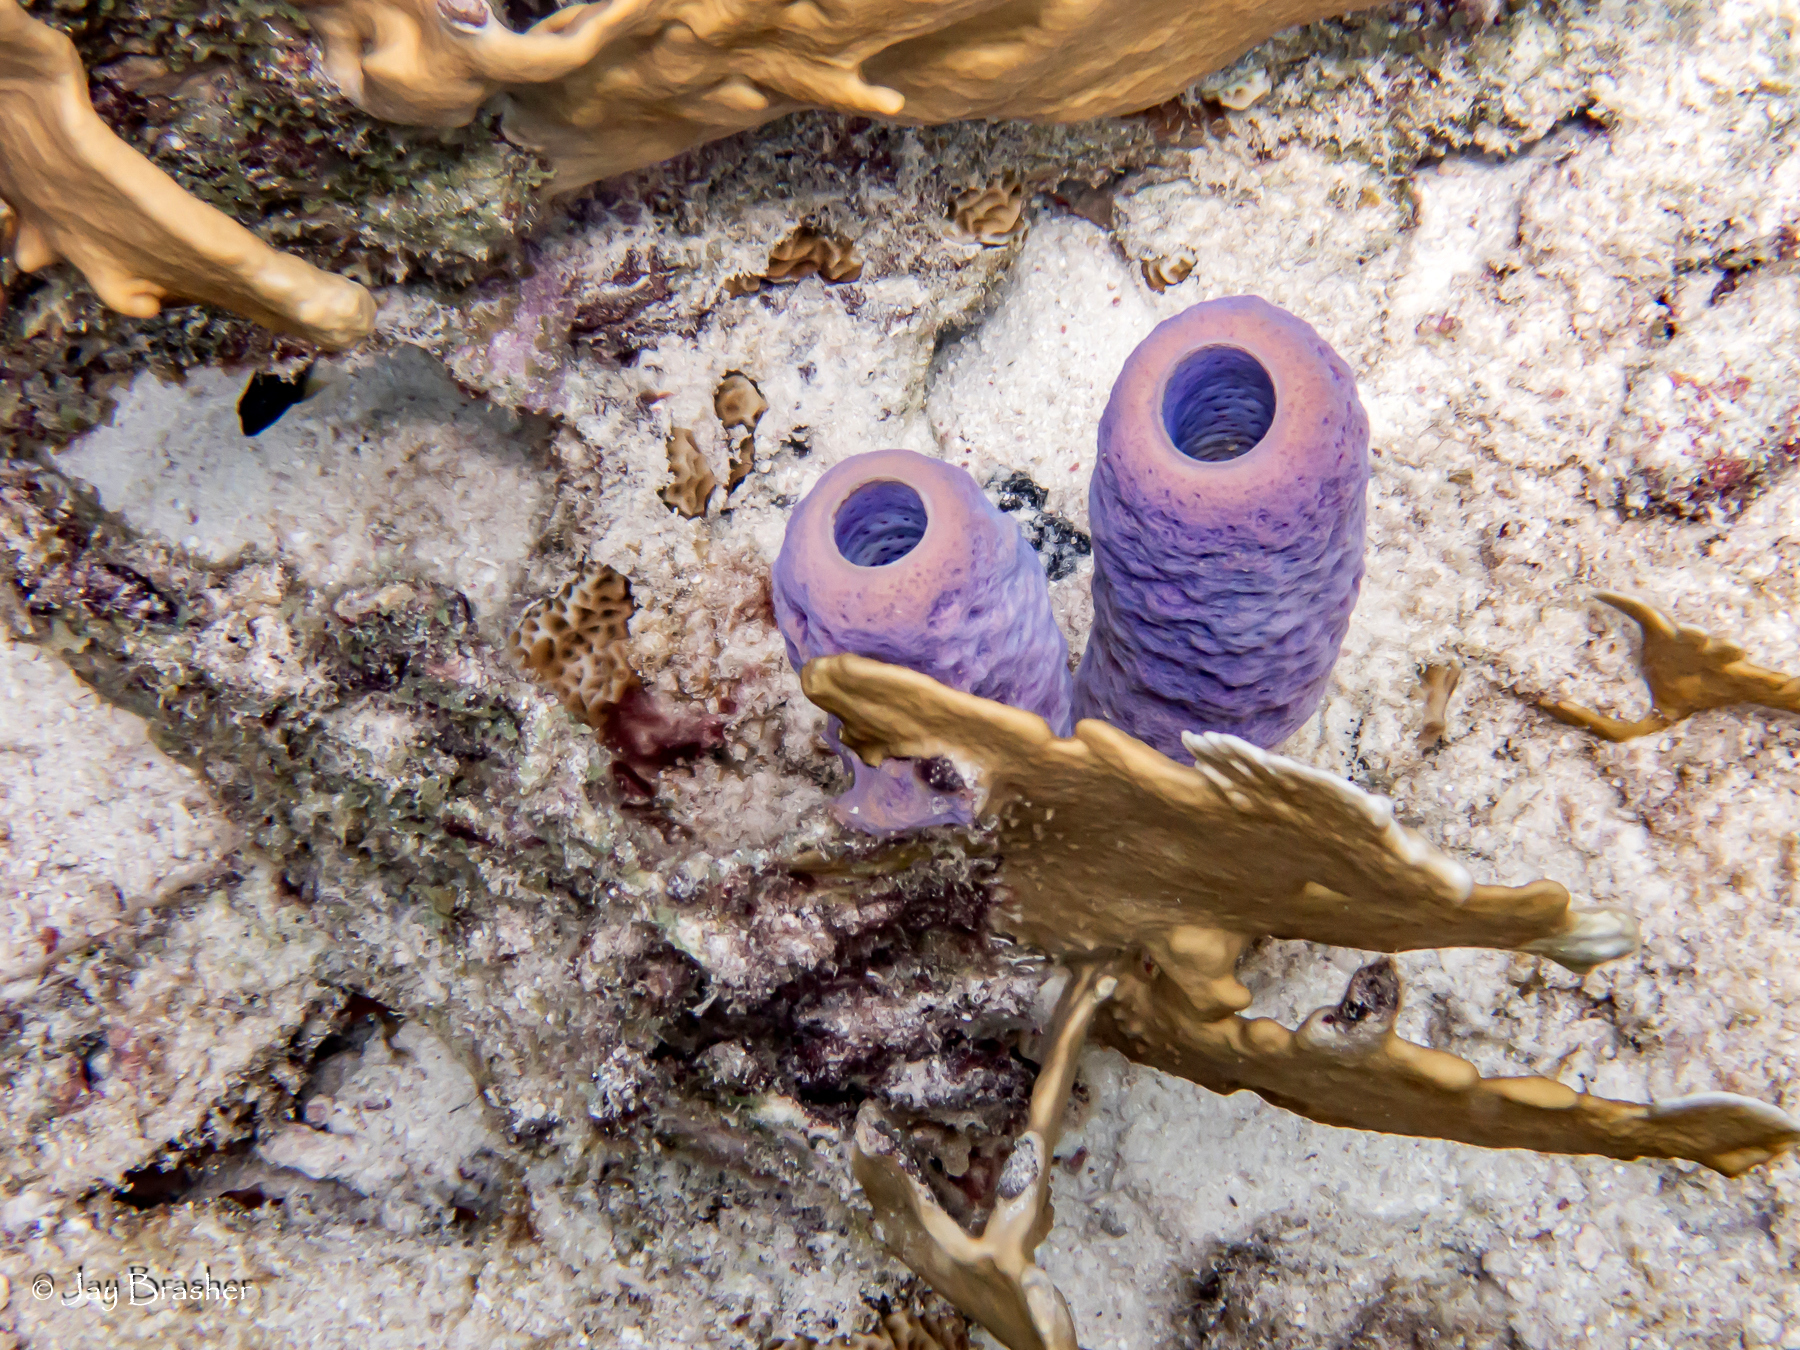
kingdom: Animalia
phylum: Porifera
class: Demospongiae
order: Verongiida
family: Aplysinidae
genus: Aplysina
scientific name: Aplysina archeri
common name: Stove-pipe sponge
